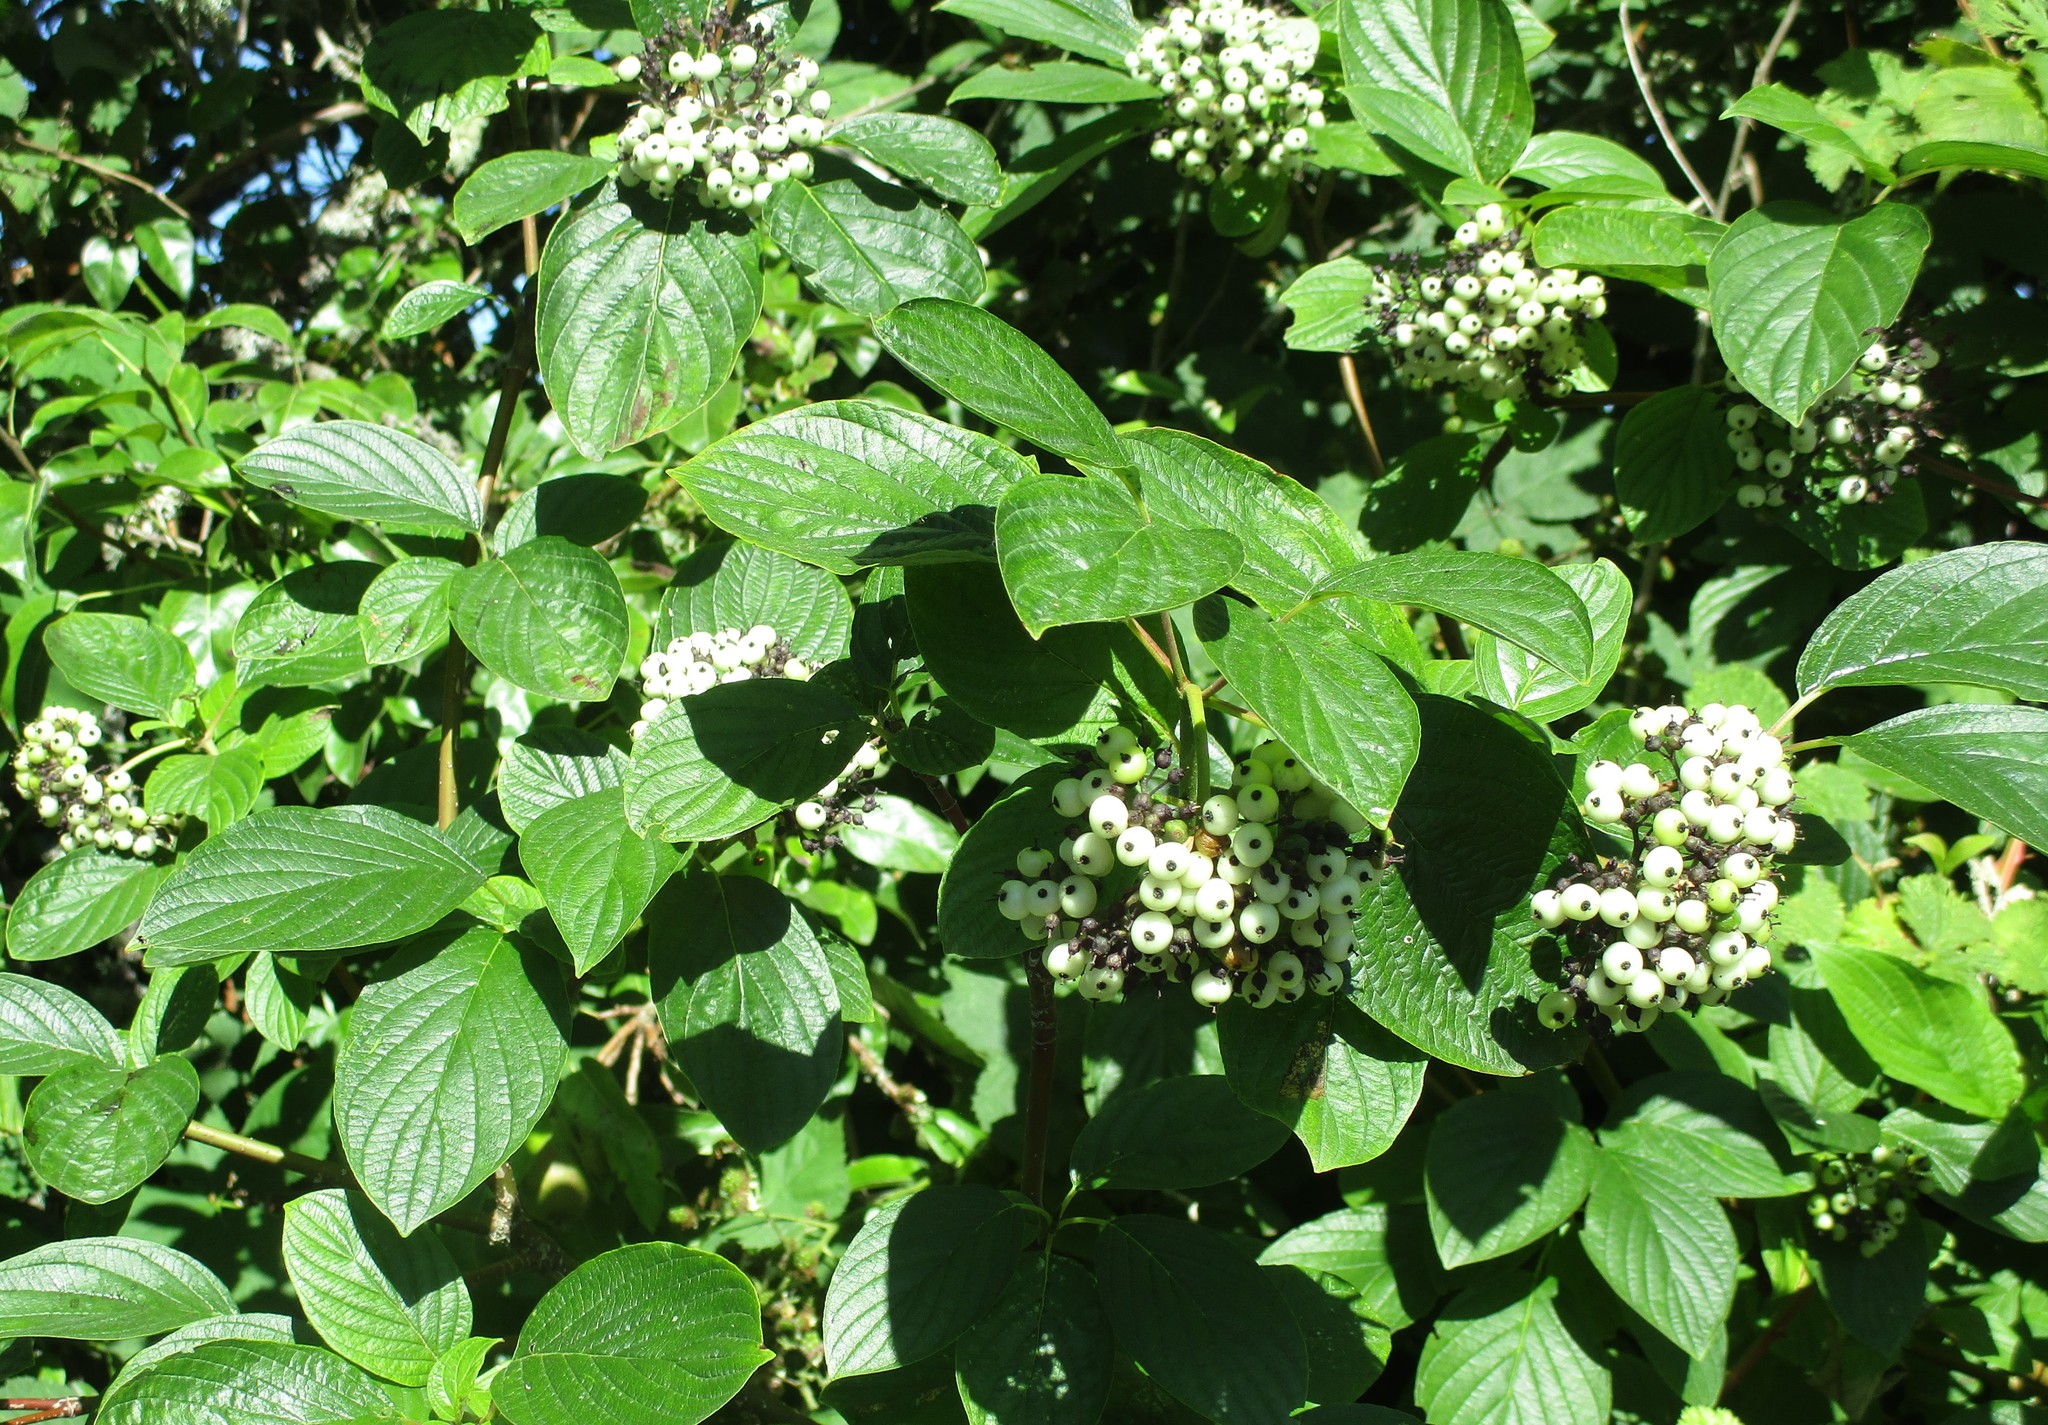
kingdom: Plantae
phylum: Tracheophyta
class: Magnoliopsida
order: Cornales
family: Cornaceae
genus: Cornus
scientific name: Cornus sericea
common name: Red-osier dogwood
